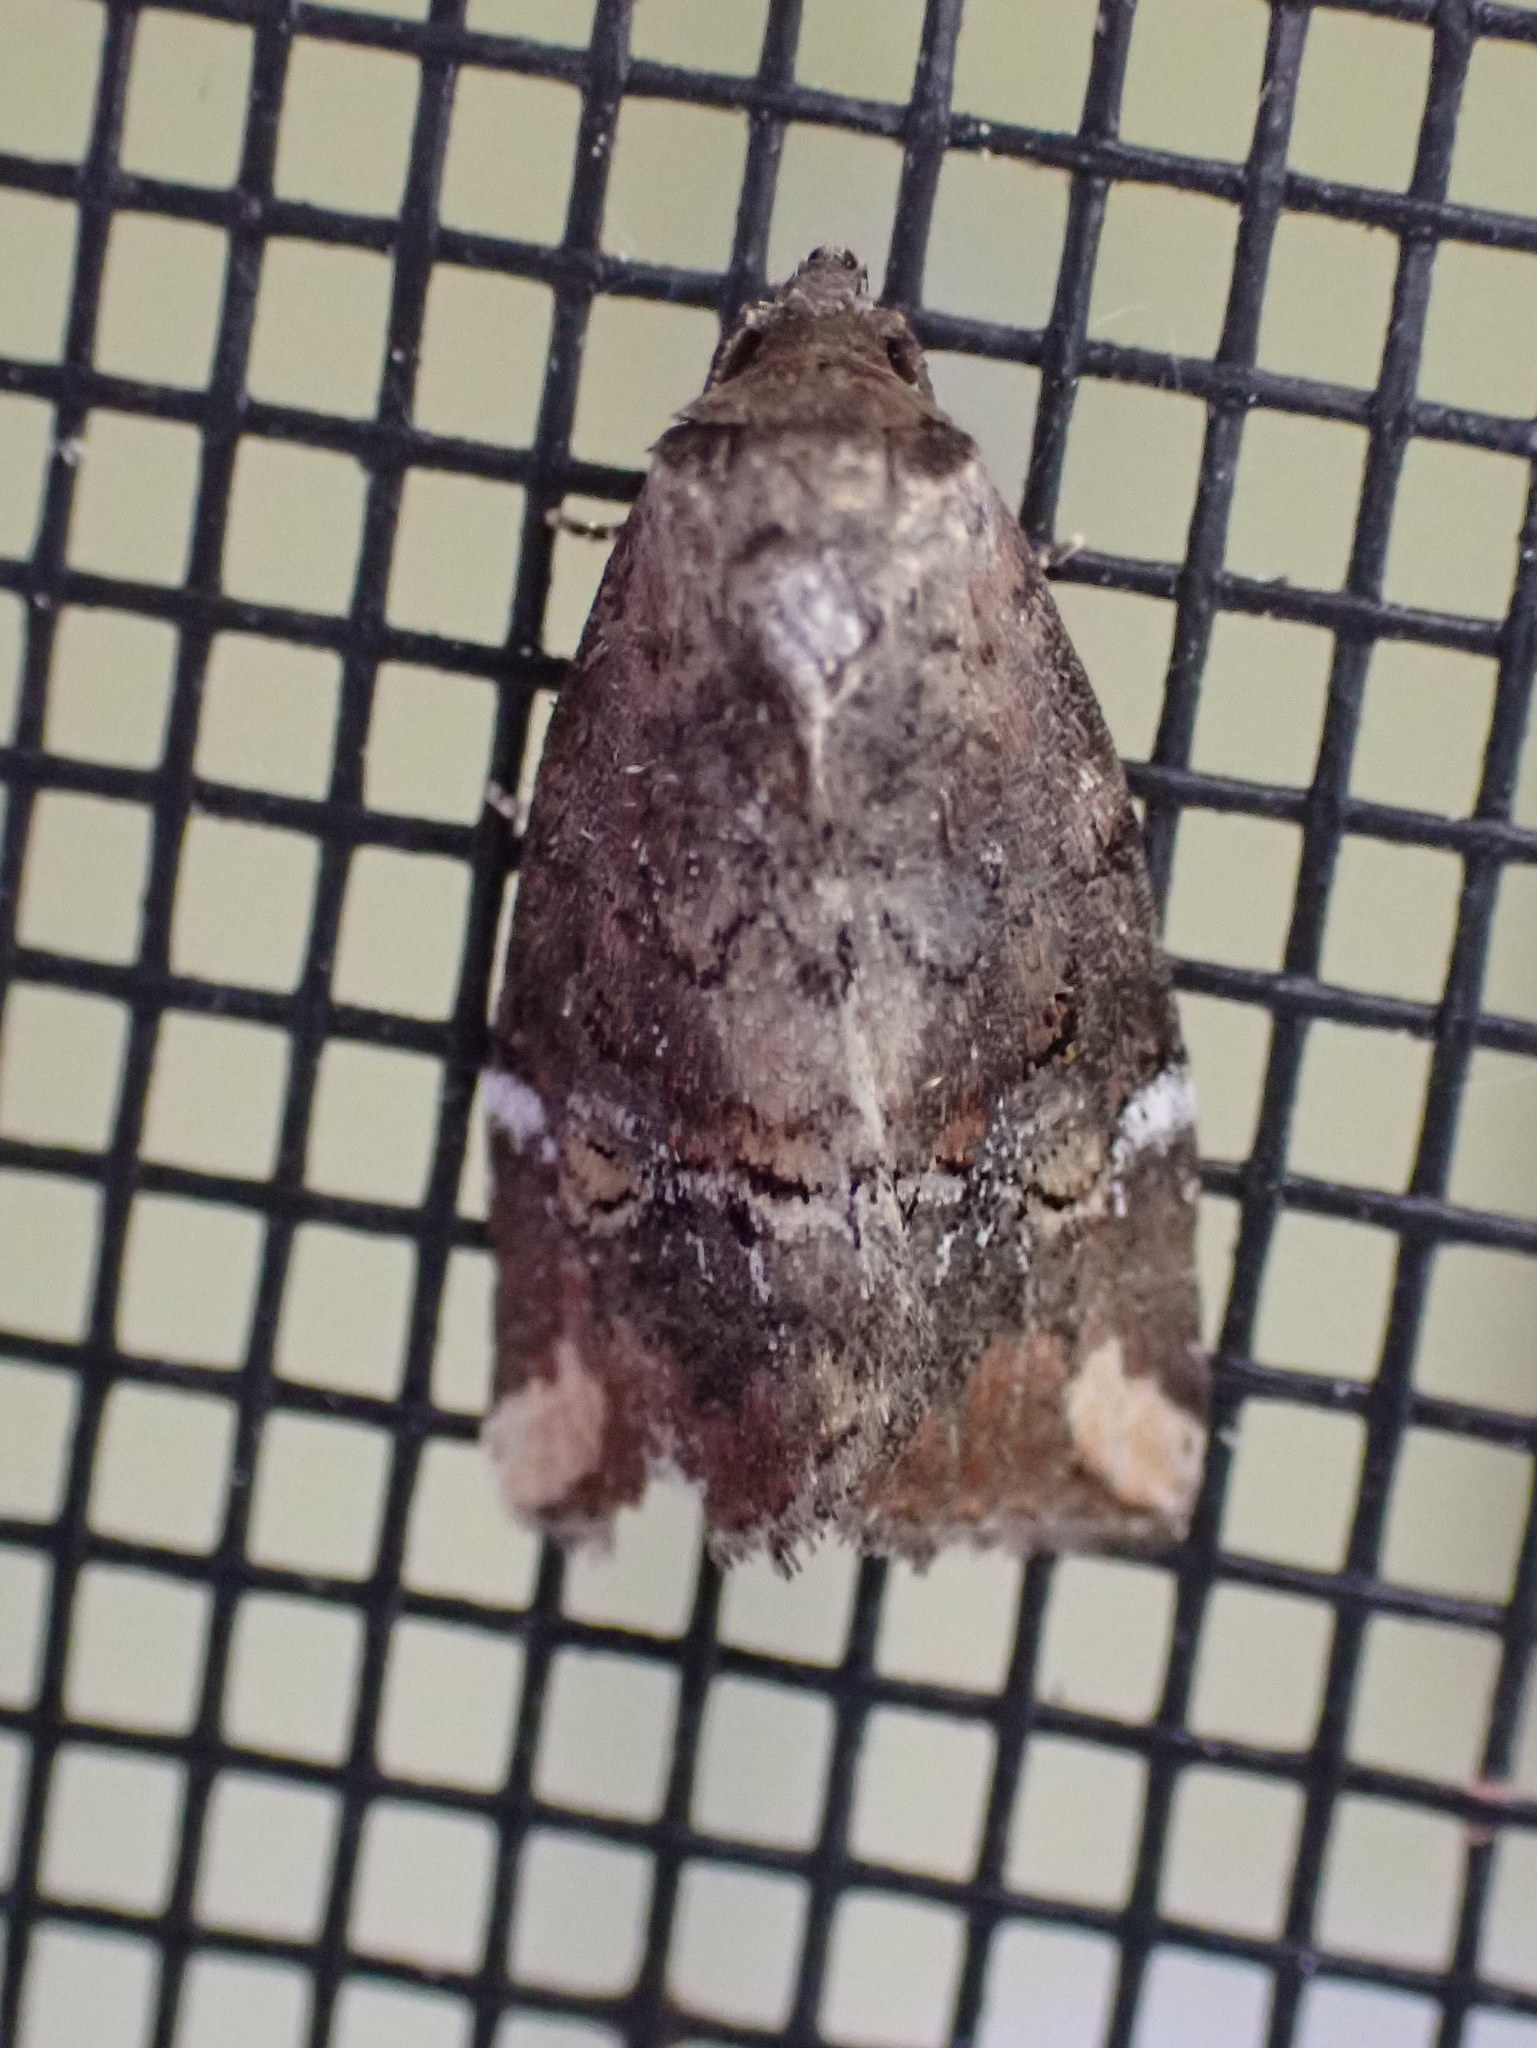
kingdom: Animalia
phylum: Arthropoda
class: Insecta
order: Lepidoptera
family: Noctuidae
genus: Elaphria
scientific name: Elaphria versicolor
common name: Fir harlequin
